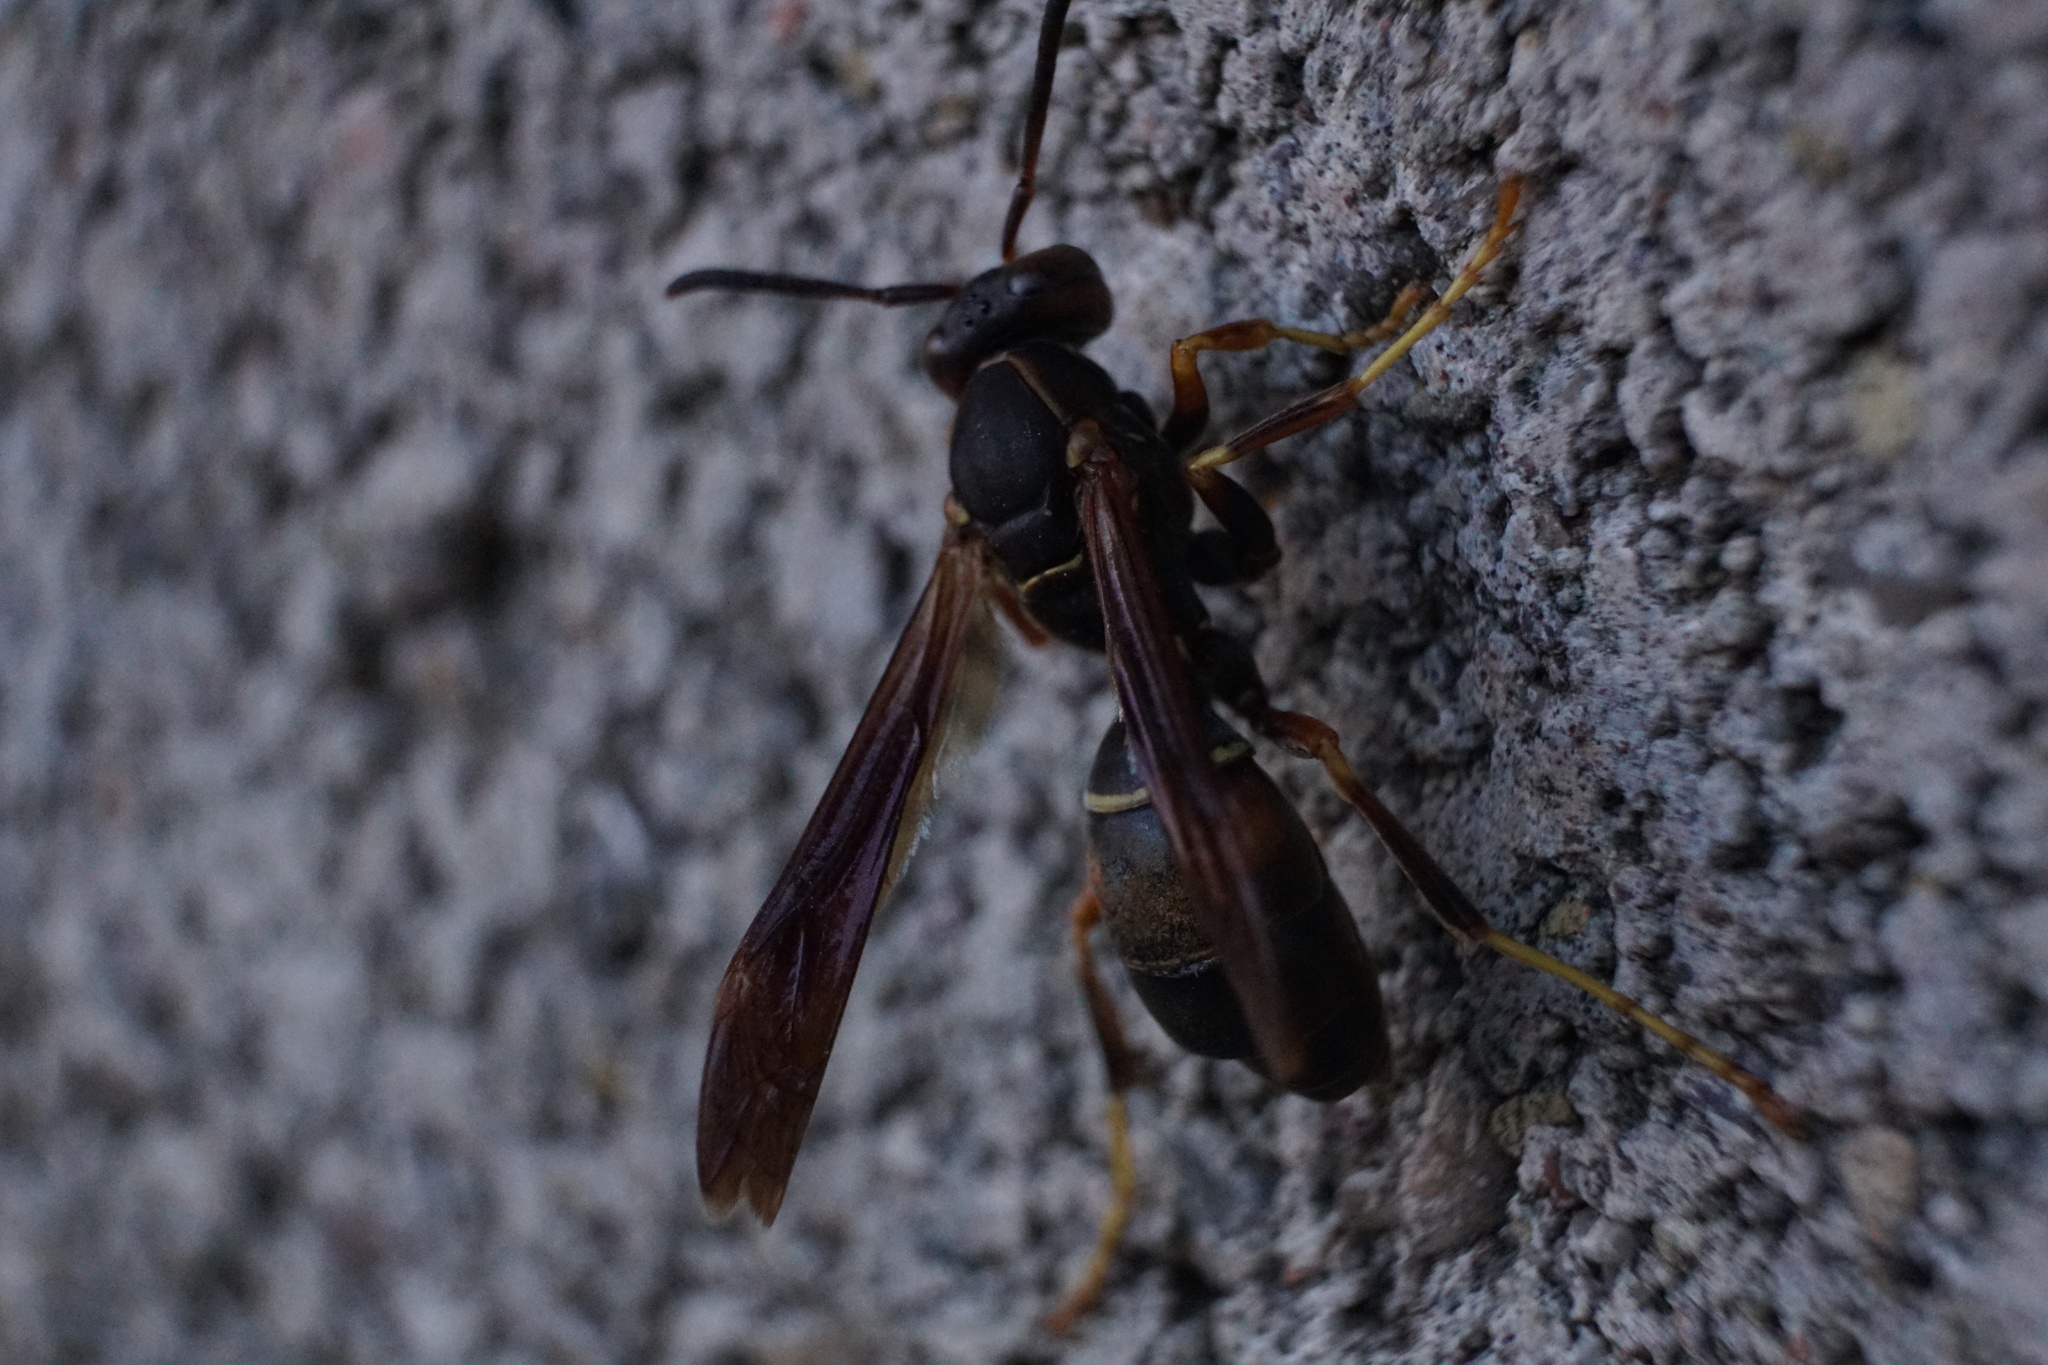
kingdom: Animalia
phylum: Arthropoda
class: Insecta
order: Hymenoptera
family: Eumenidae
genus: Polistes
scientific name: Polistes fuscatus
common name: Dark paper wasp
